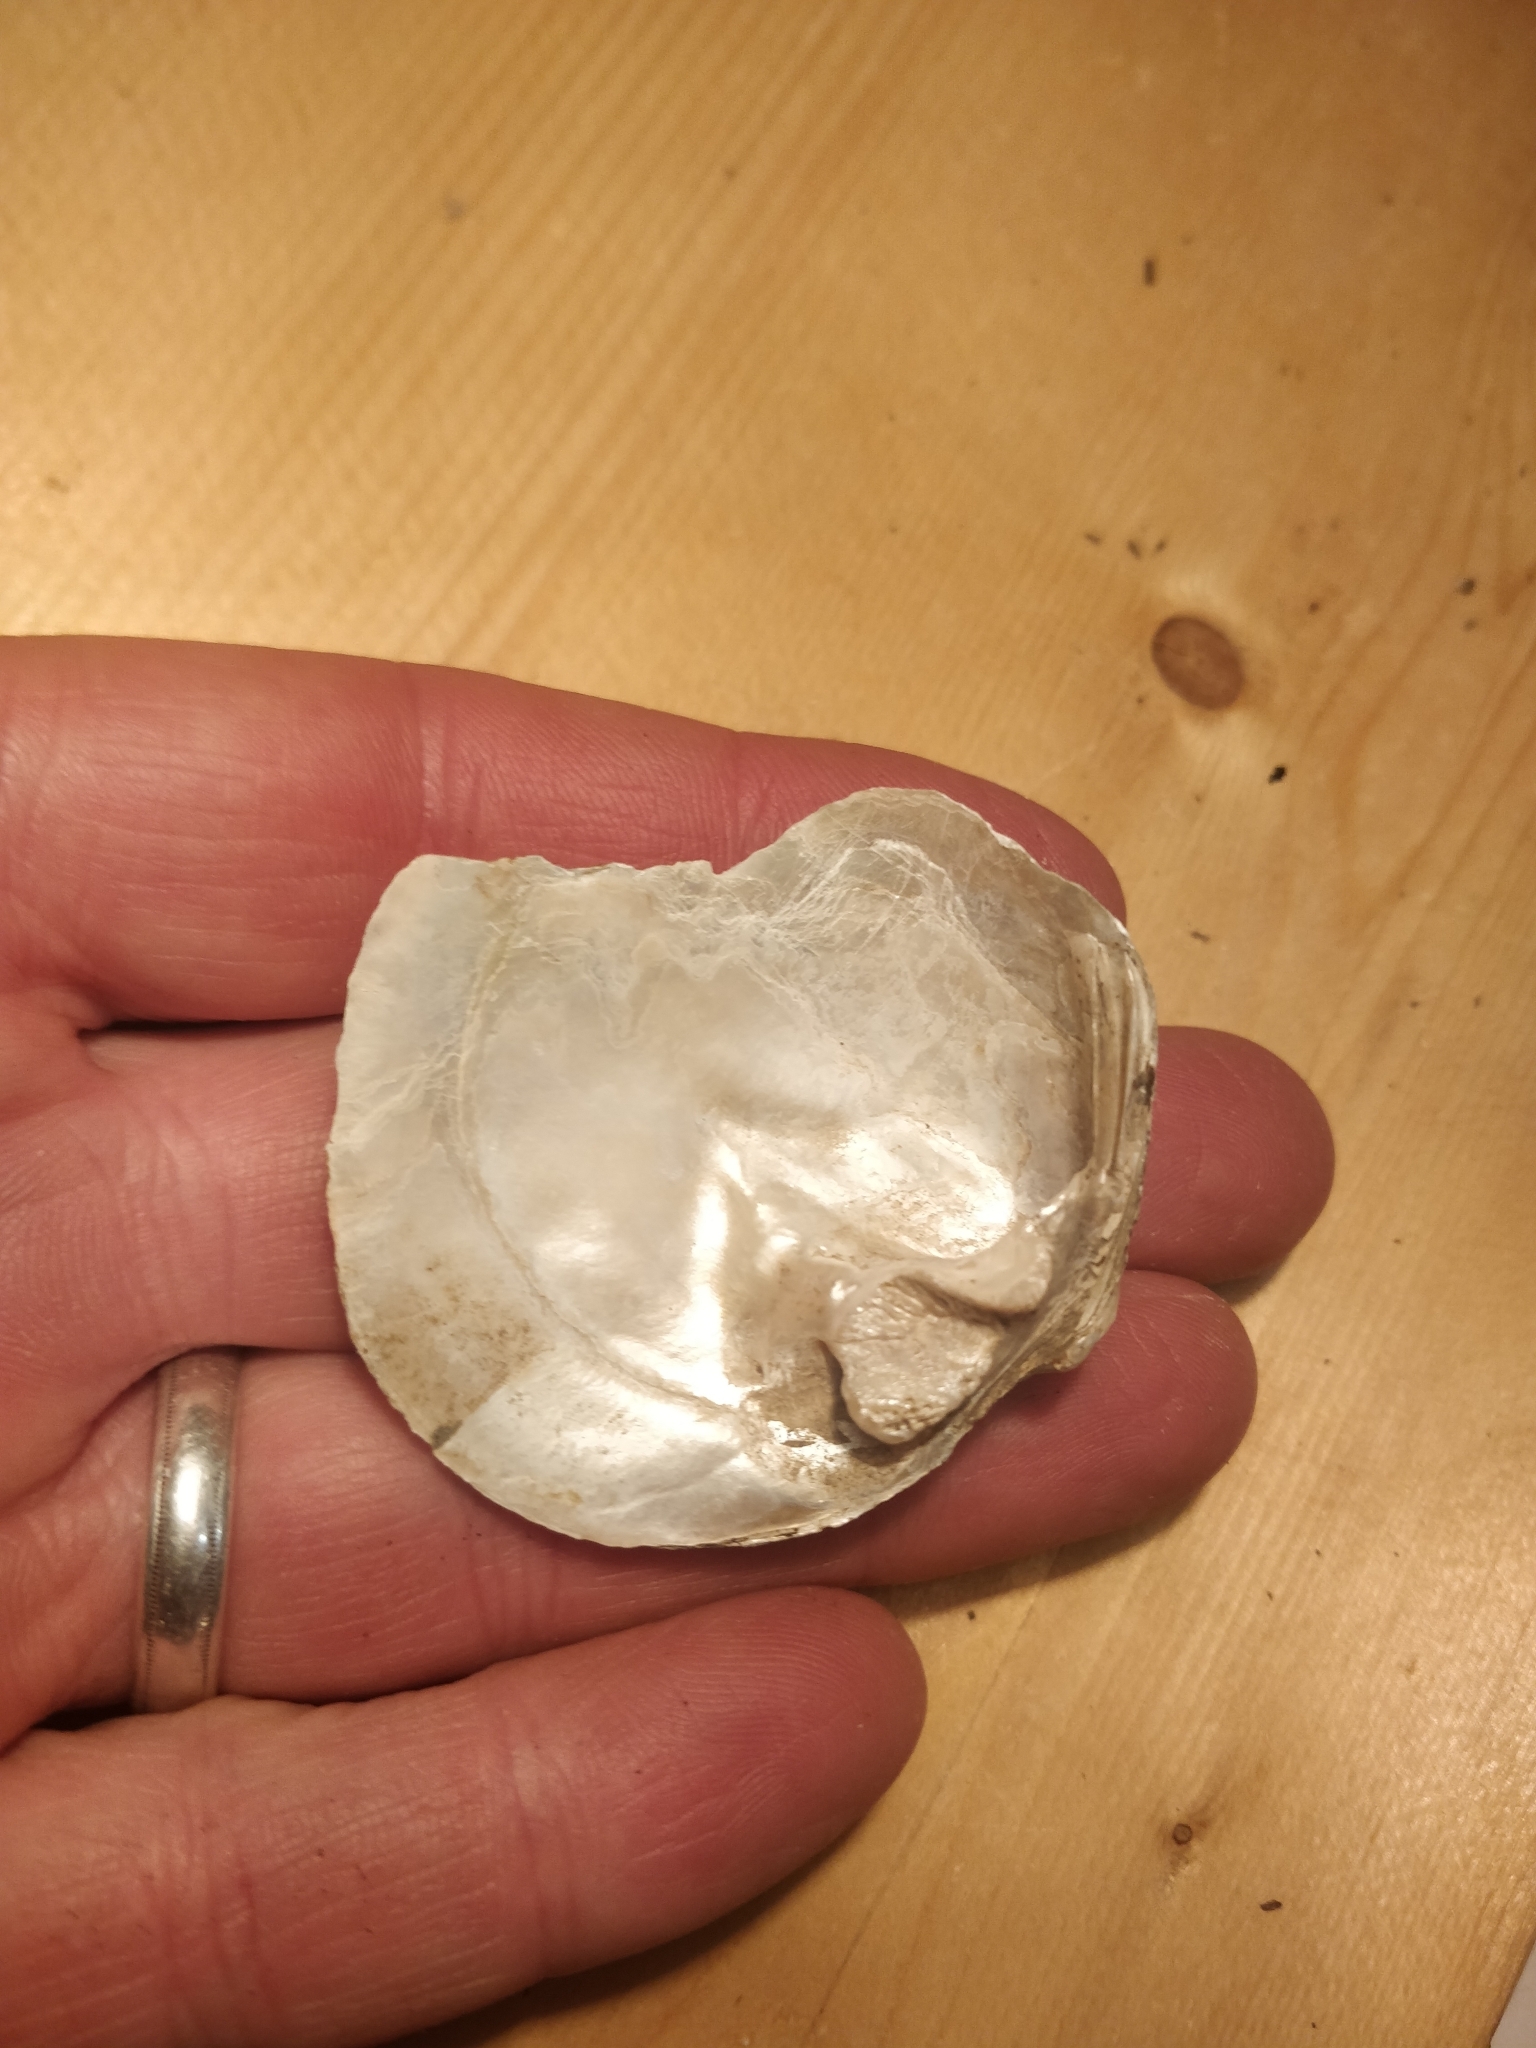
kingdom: Animalia
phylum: Mollusca
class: Bivalvia
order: Unionida
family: Unionidae
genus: Quadrula
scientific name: Quadrula quadrula
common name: Mapleleaf
